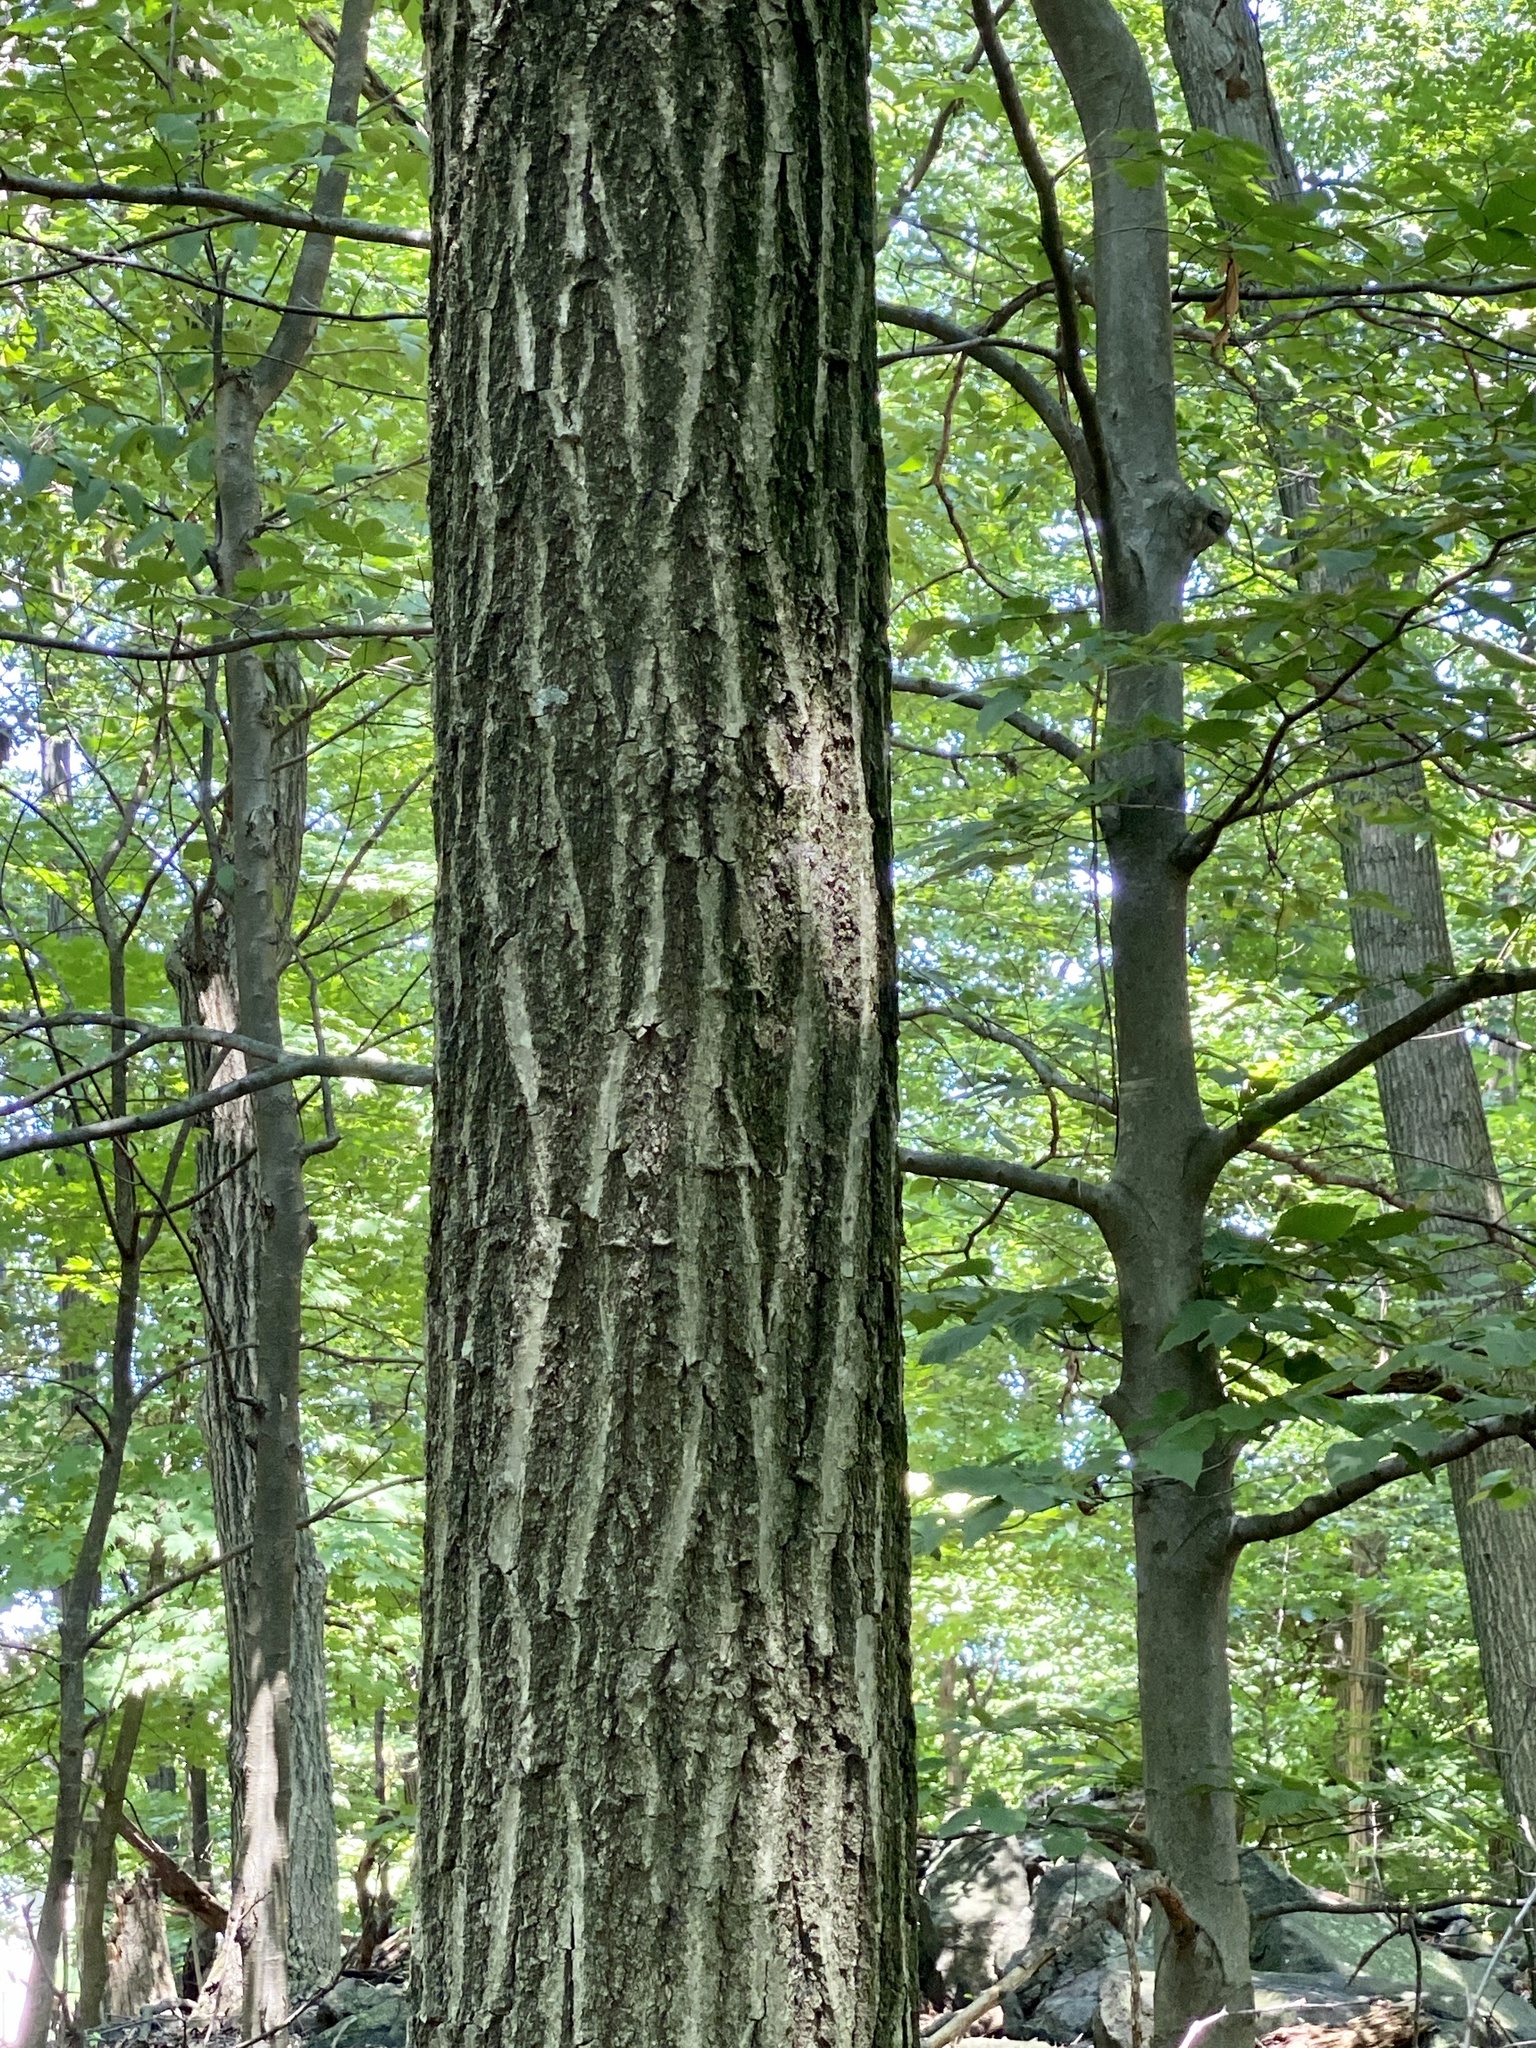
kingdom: Plantae
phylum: Tracheophyta
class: Magnoliopsida
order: Fagales
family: Fagaceae
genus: Quercus
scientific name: Quercus rubra
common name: Red oak
